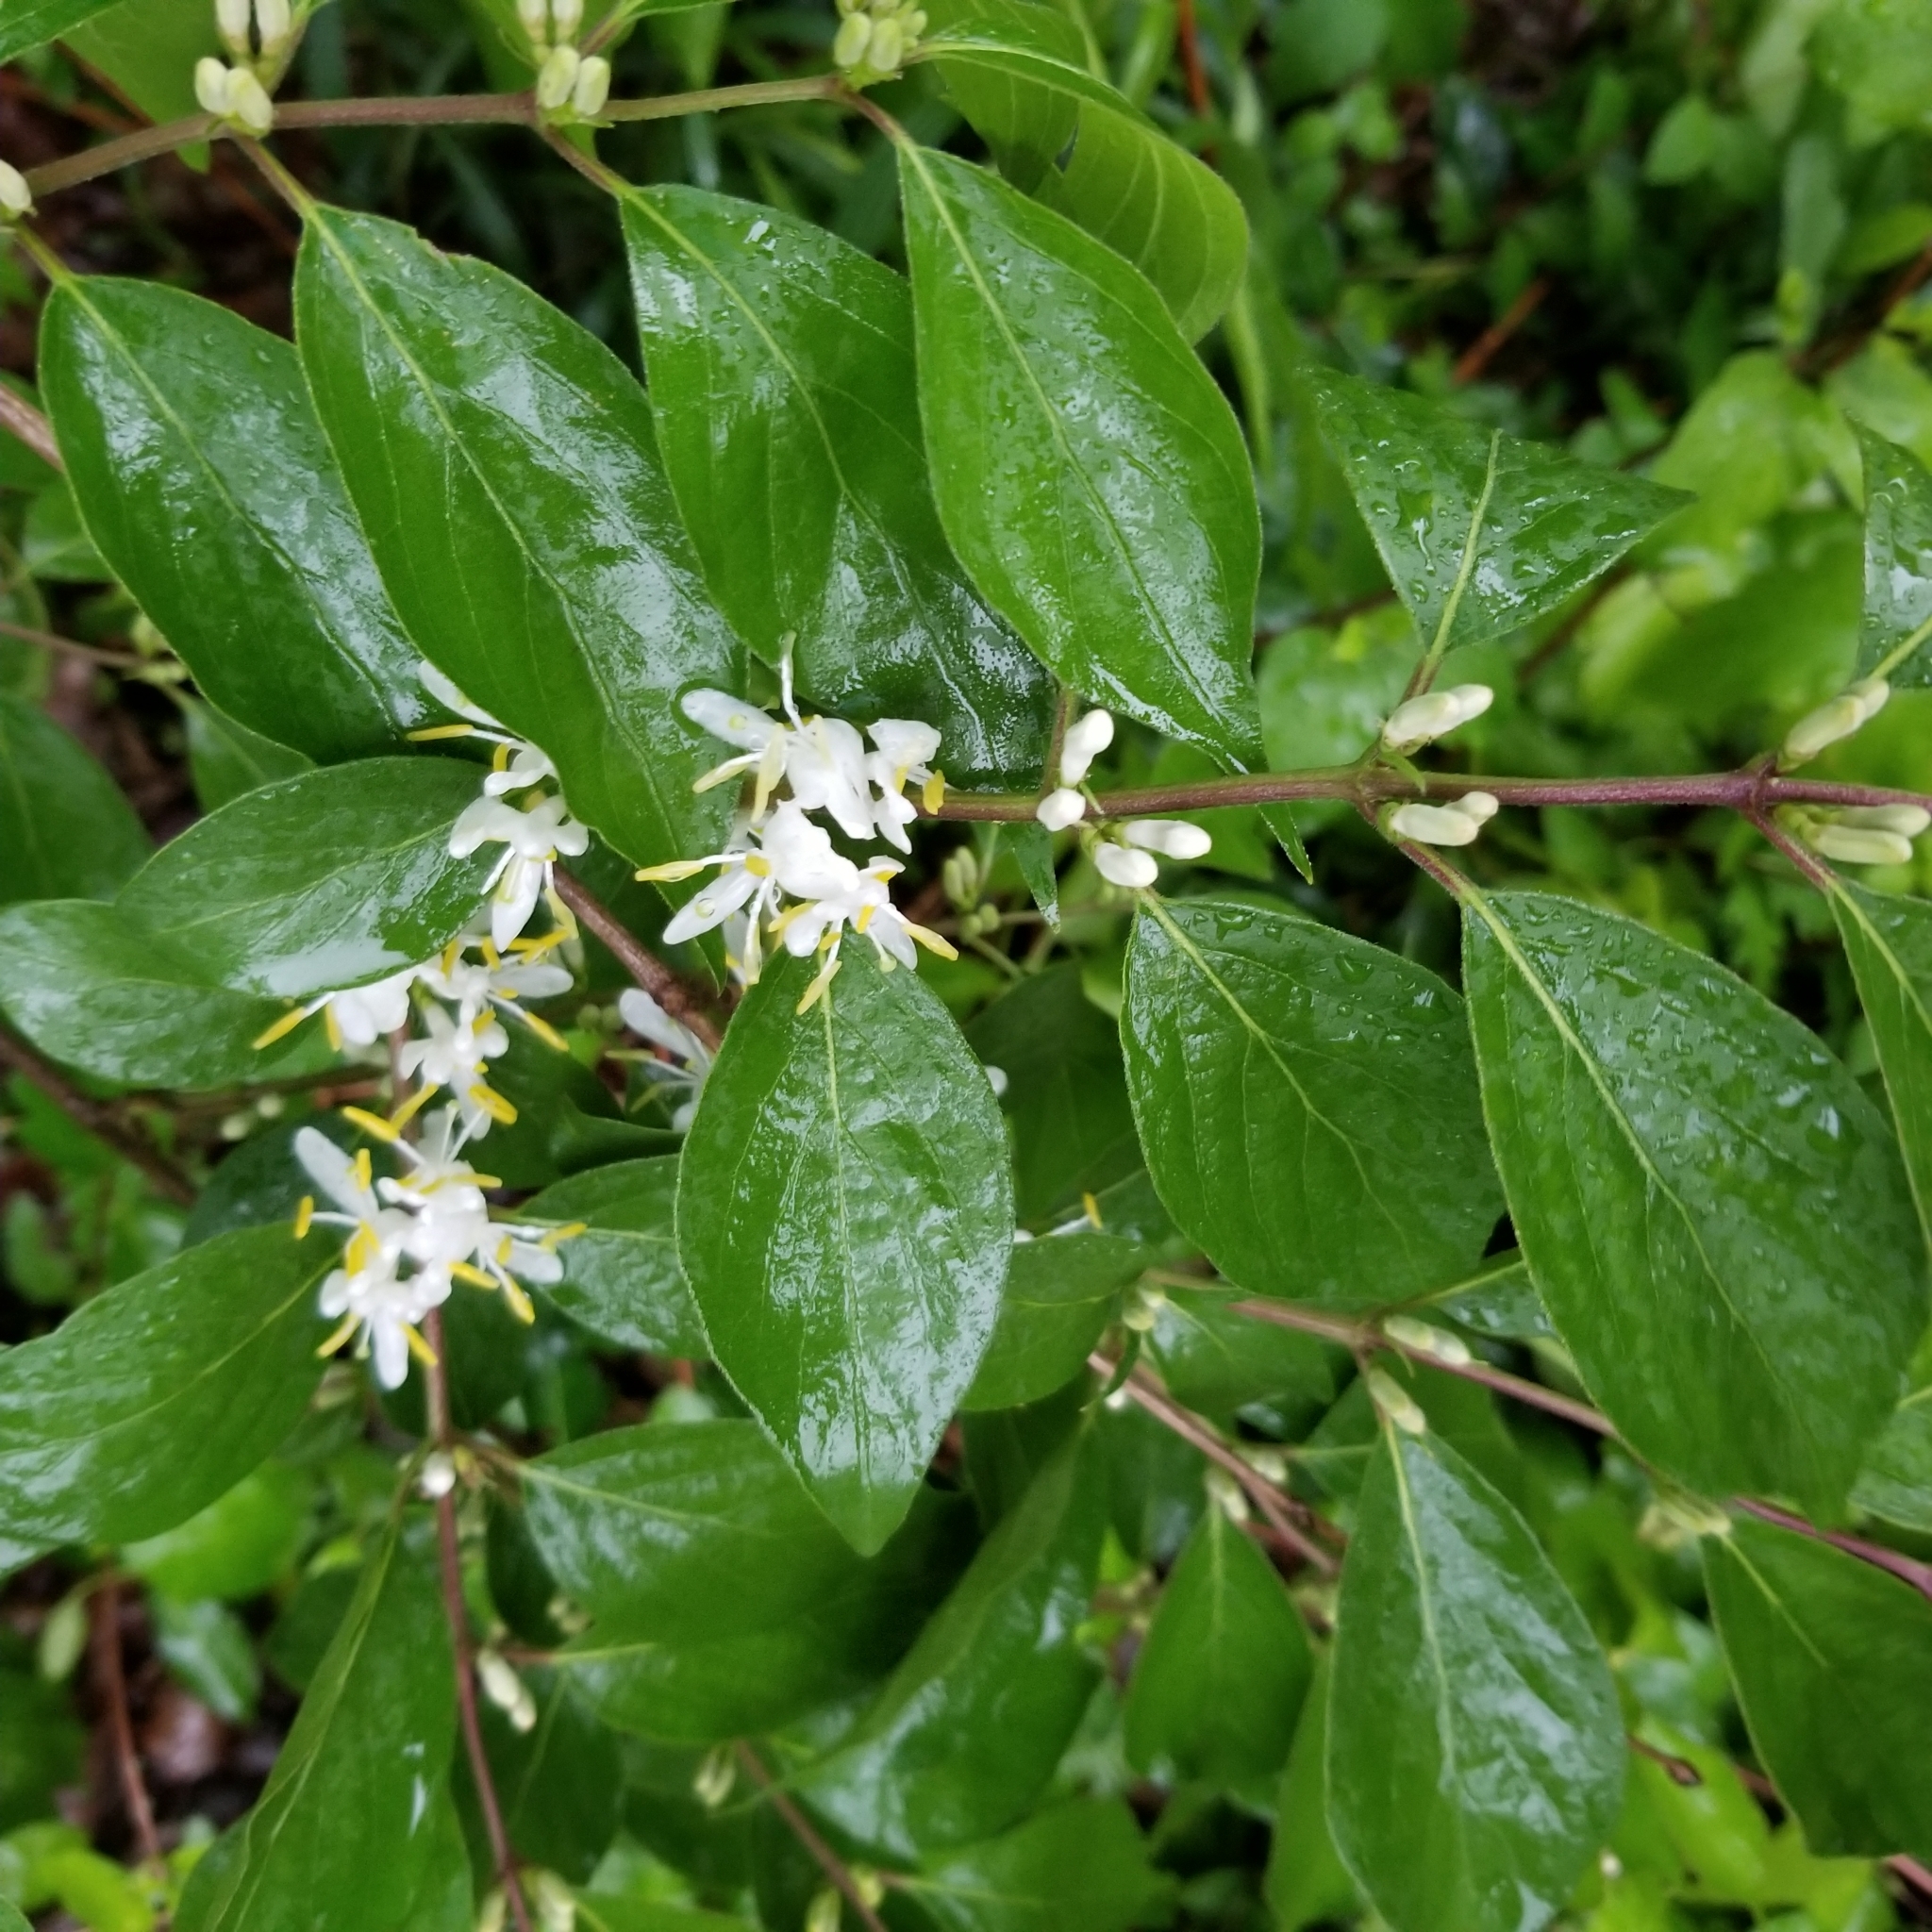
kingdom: Plantae
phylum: Tracheophyta
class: Magnoliopsida
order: Dipsacales
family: Caprifoliaceae
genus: Lonicera
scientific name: Lonicera maackii
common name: Amur honeysuckle
